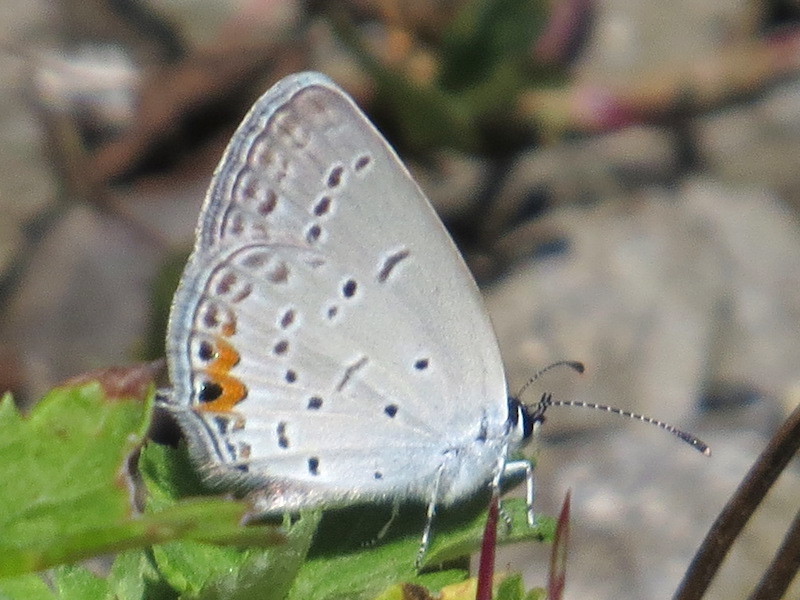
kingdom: Animalia
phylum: Arthropoda
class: Insecta
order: Lepidoptera
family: Lycaenidae
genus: Elkalyce
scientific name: Elkalyce comyntas
